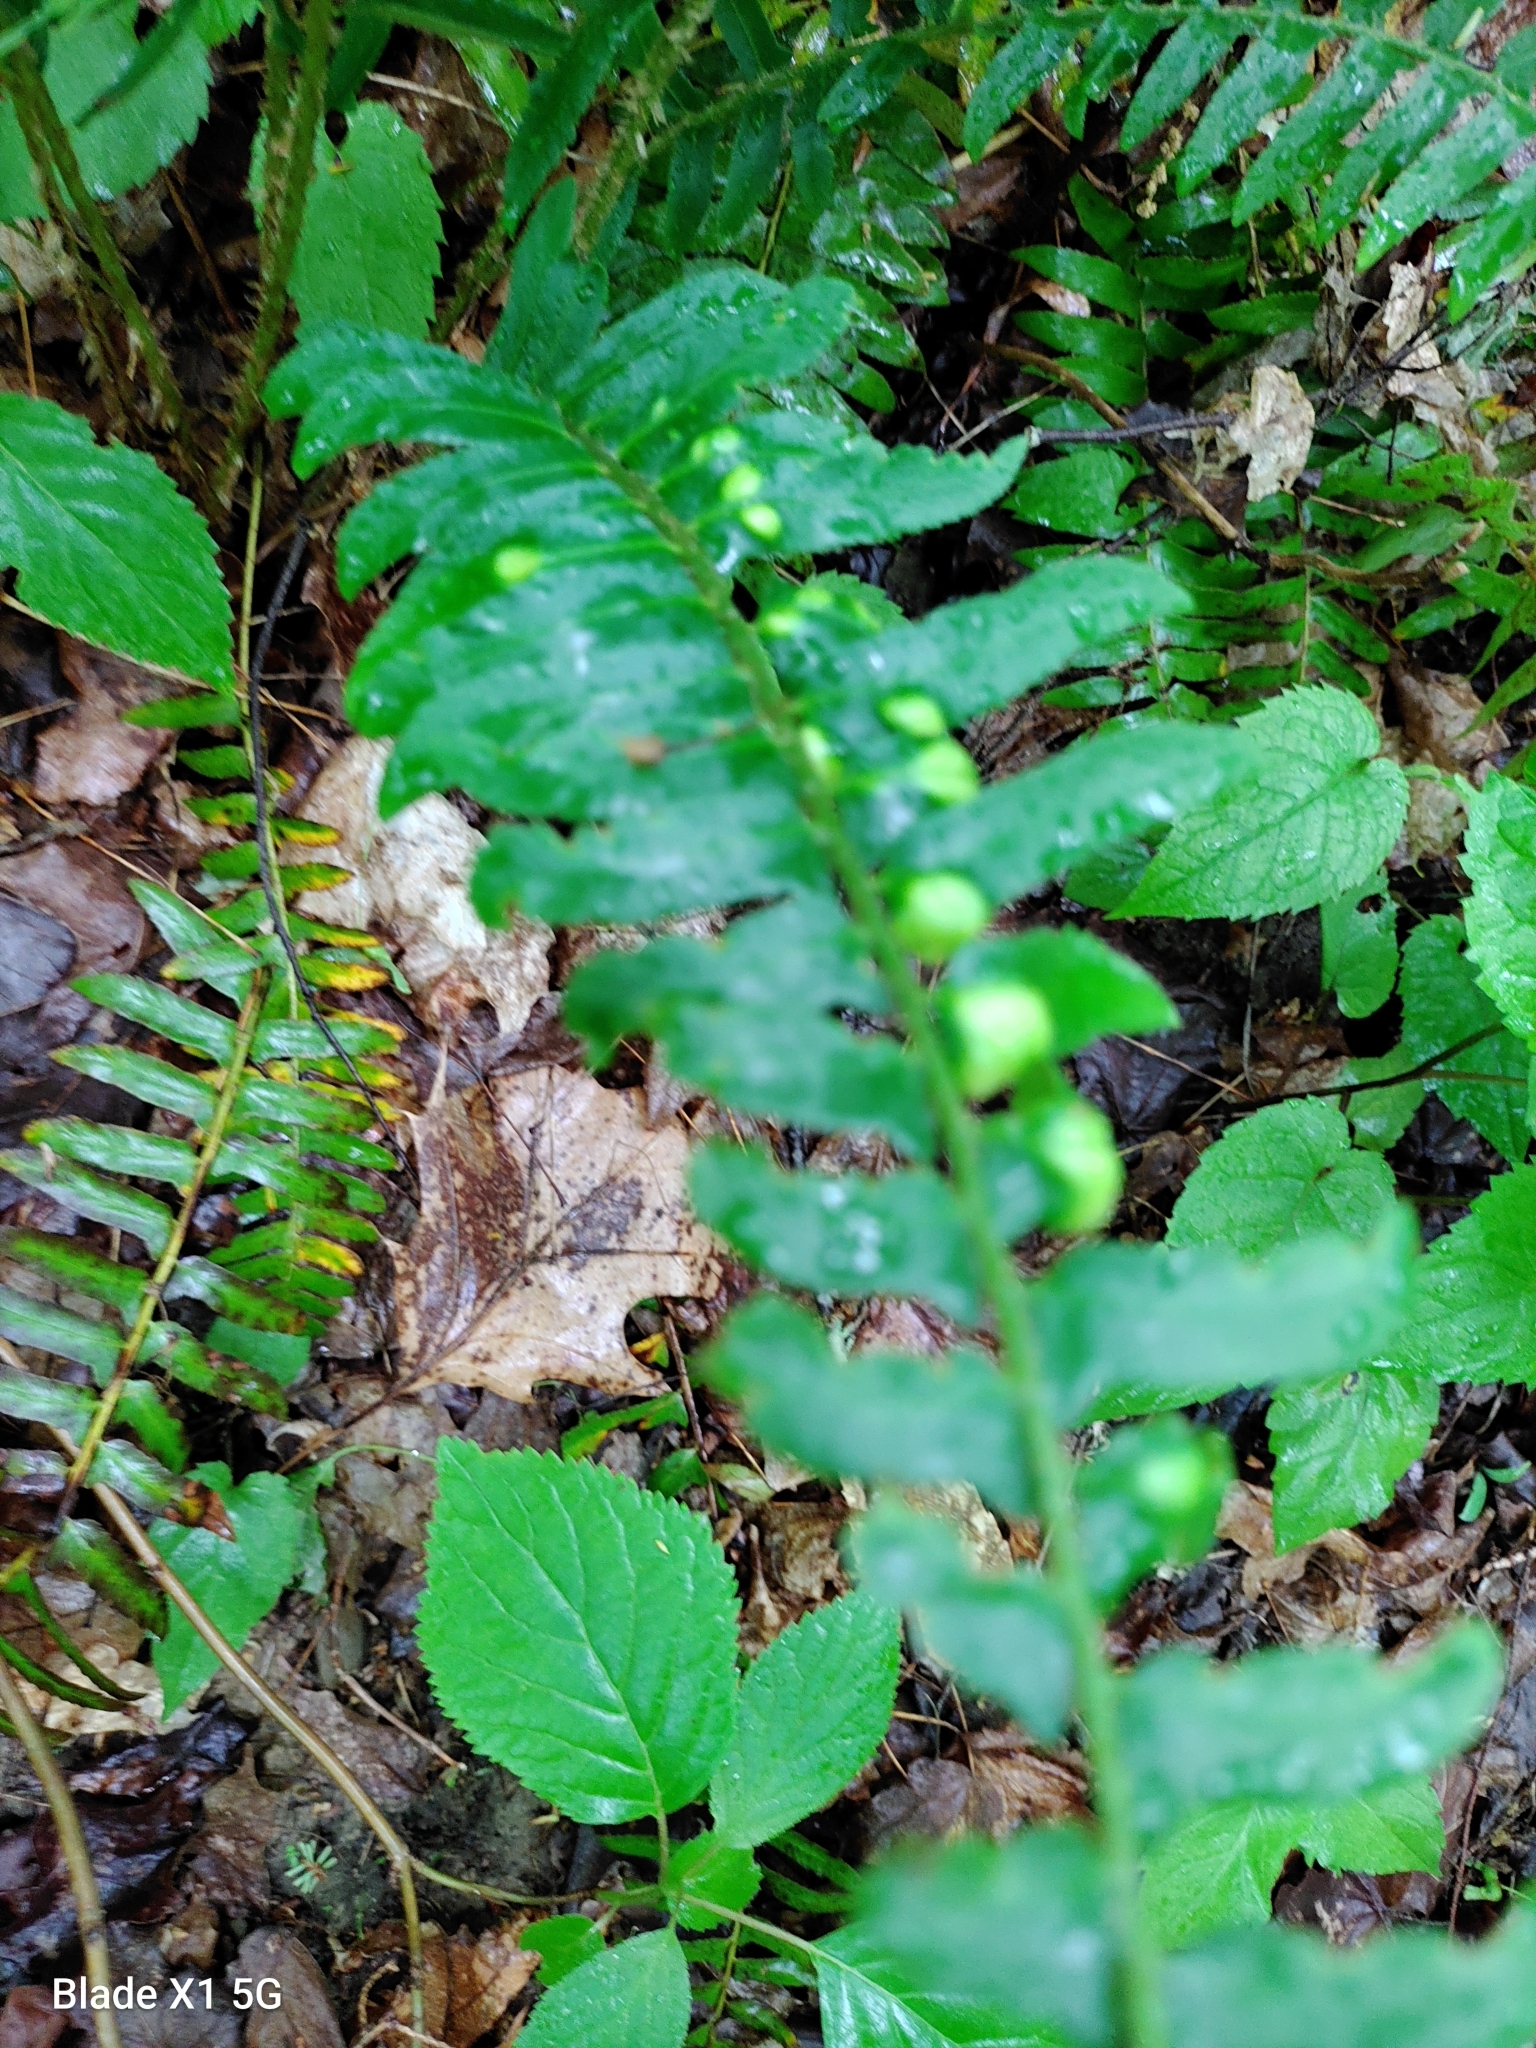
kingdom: Fungi
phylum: Ascomycota
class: Taphrinomycetes
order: Taphrinales
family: Taphrinaceae
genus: Taphrina
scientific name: Taphrina polystichi
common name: Christmas fern leaf curl
